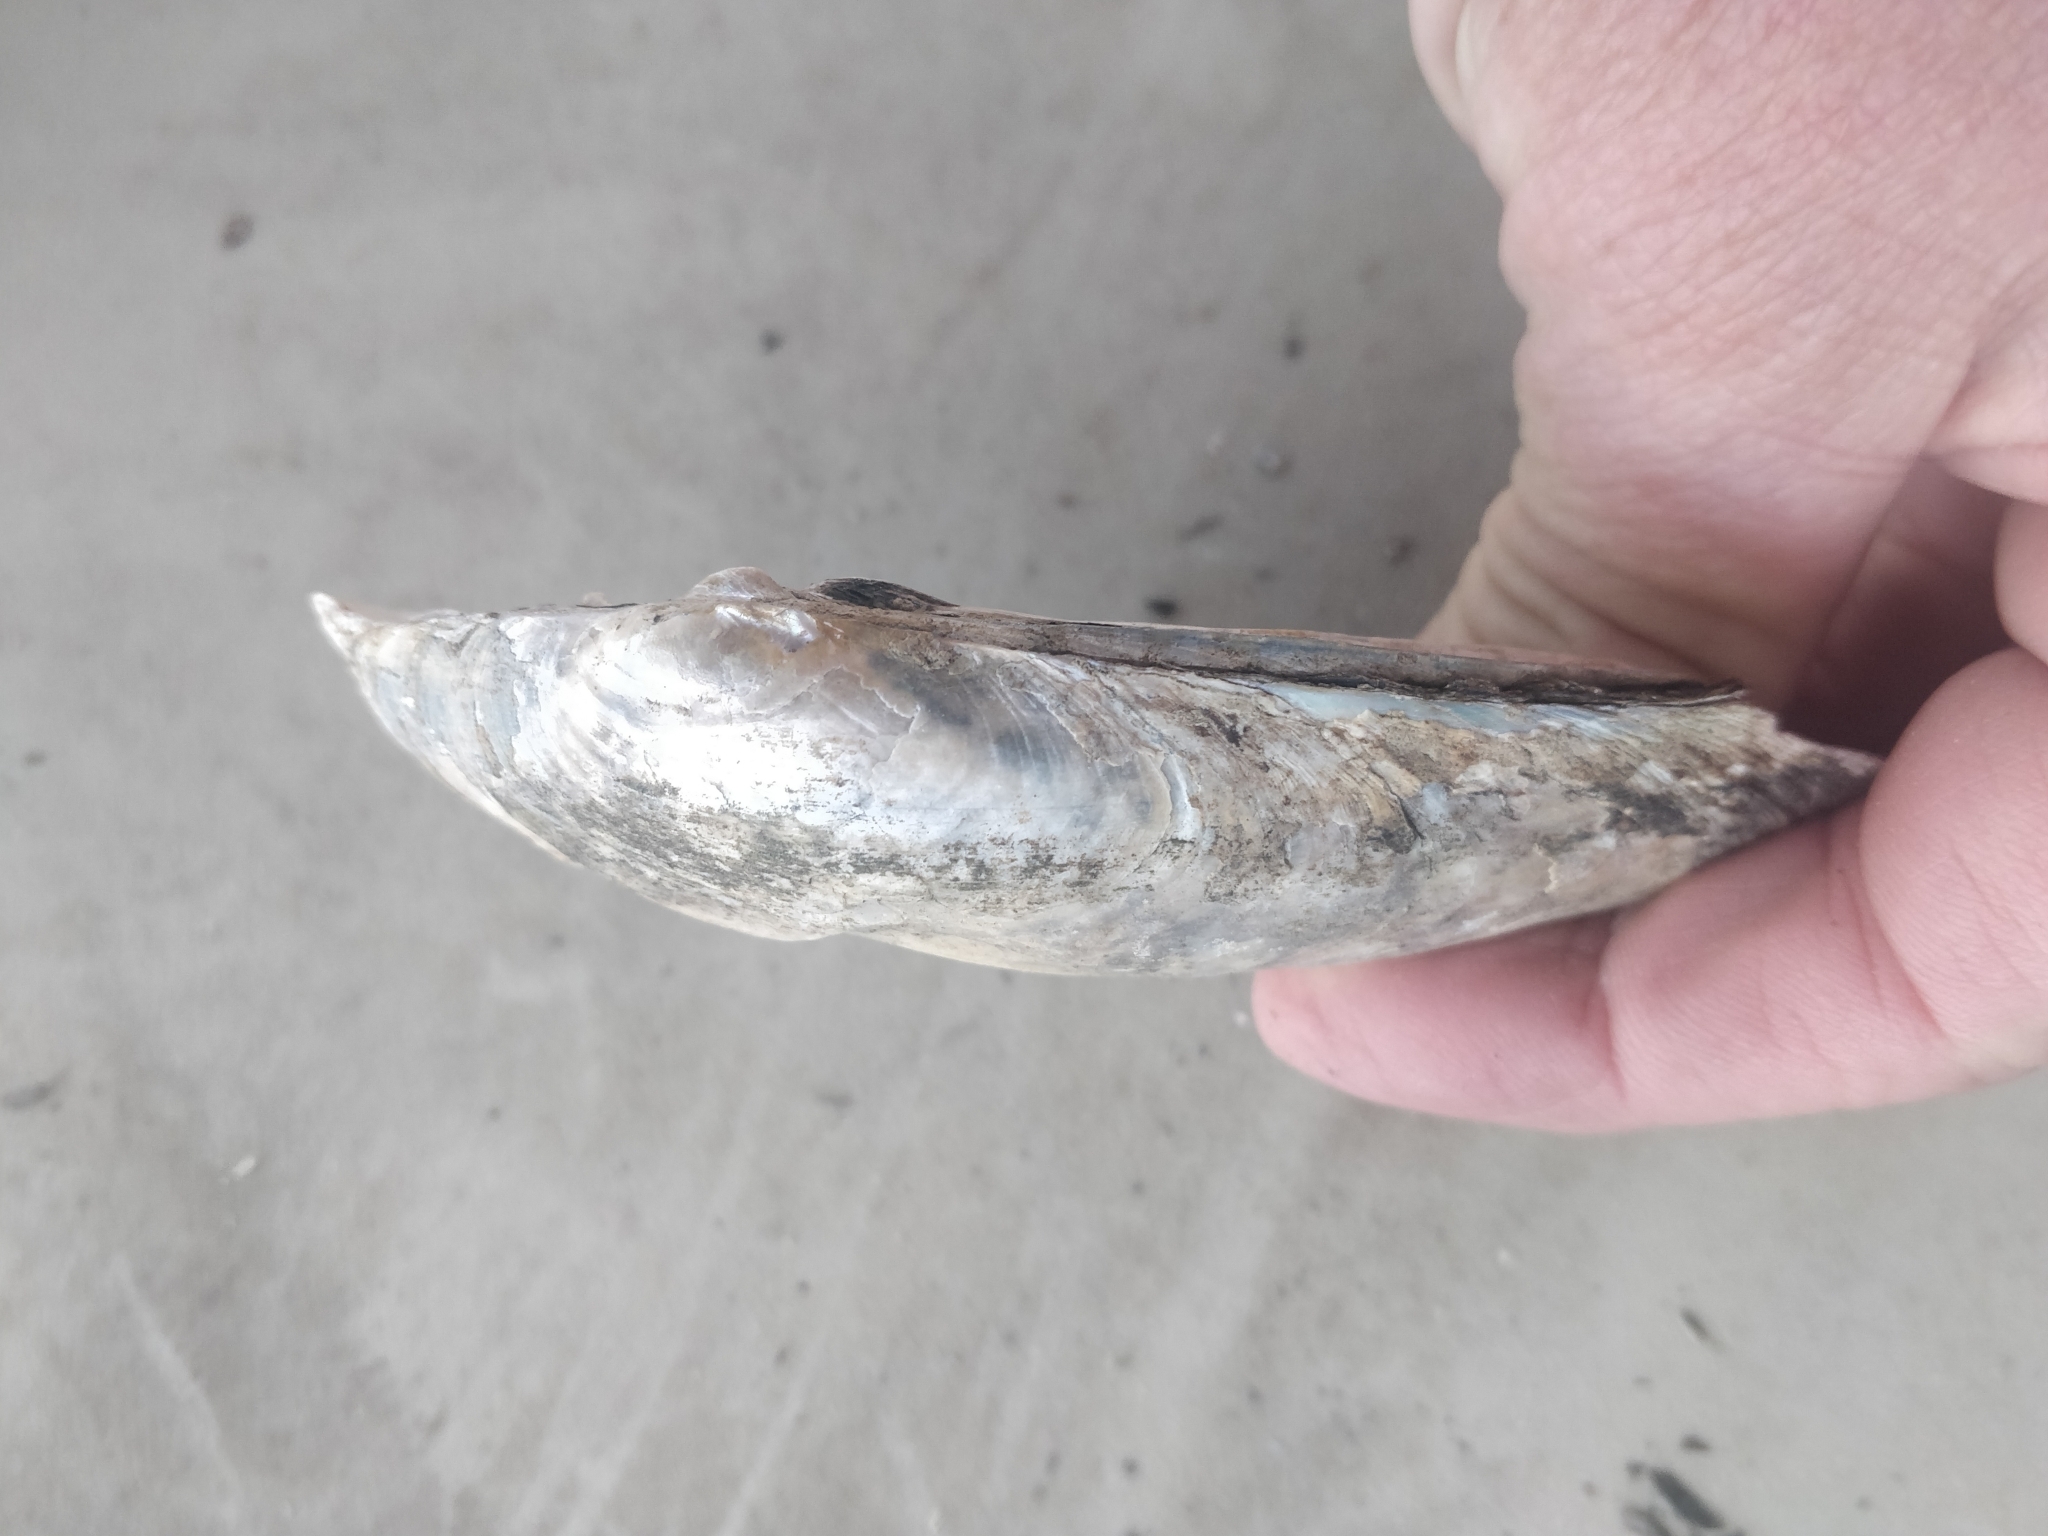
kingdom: Animalia
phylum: Mollusca
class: Bivalvia
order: Unionida
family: Unionidae
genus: Lampsilis
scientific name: Lampsilis siliquoidea
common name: Fatmucket
